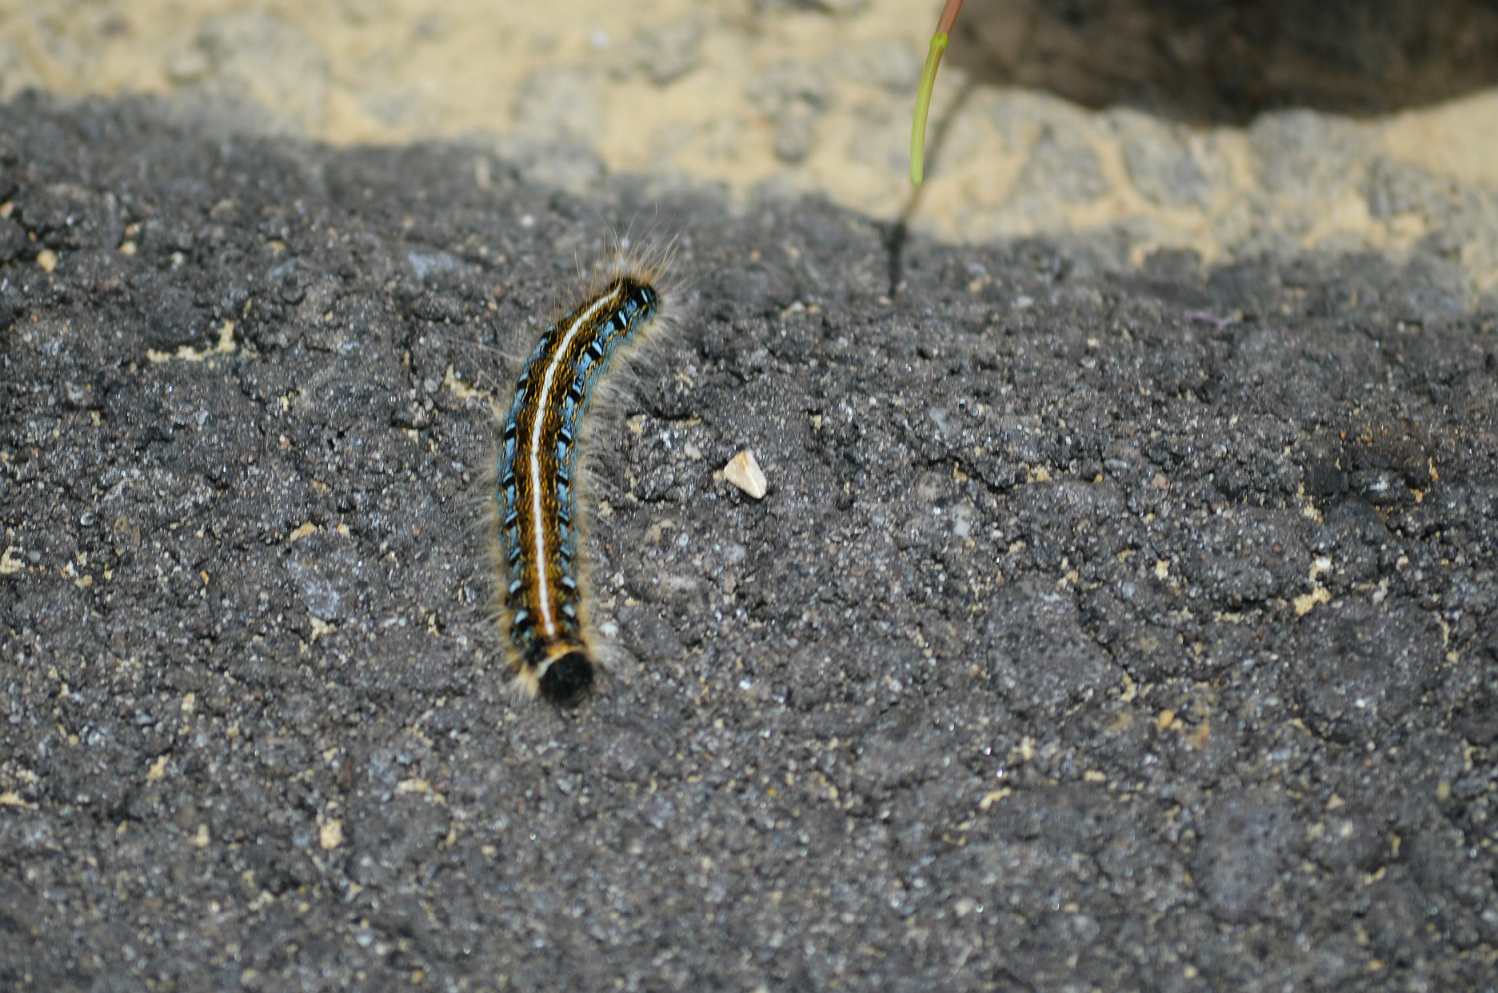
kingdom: Animalia
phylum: Arthropoda
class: Insecta
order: Lepidoptera
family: Lasiocampidae
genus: Malacosoma
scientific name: Malacosoma americana
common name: Eastern tent caterpillar moth
